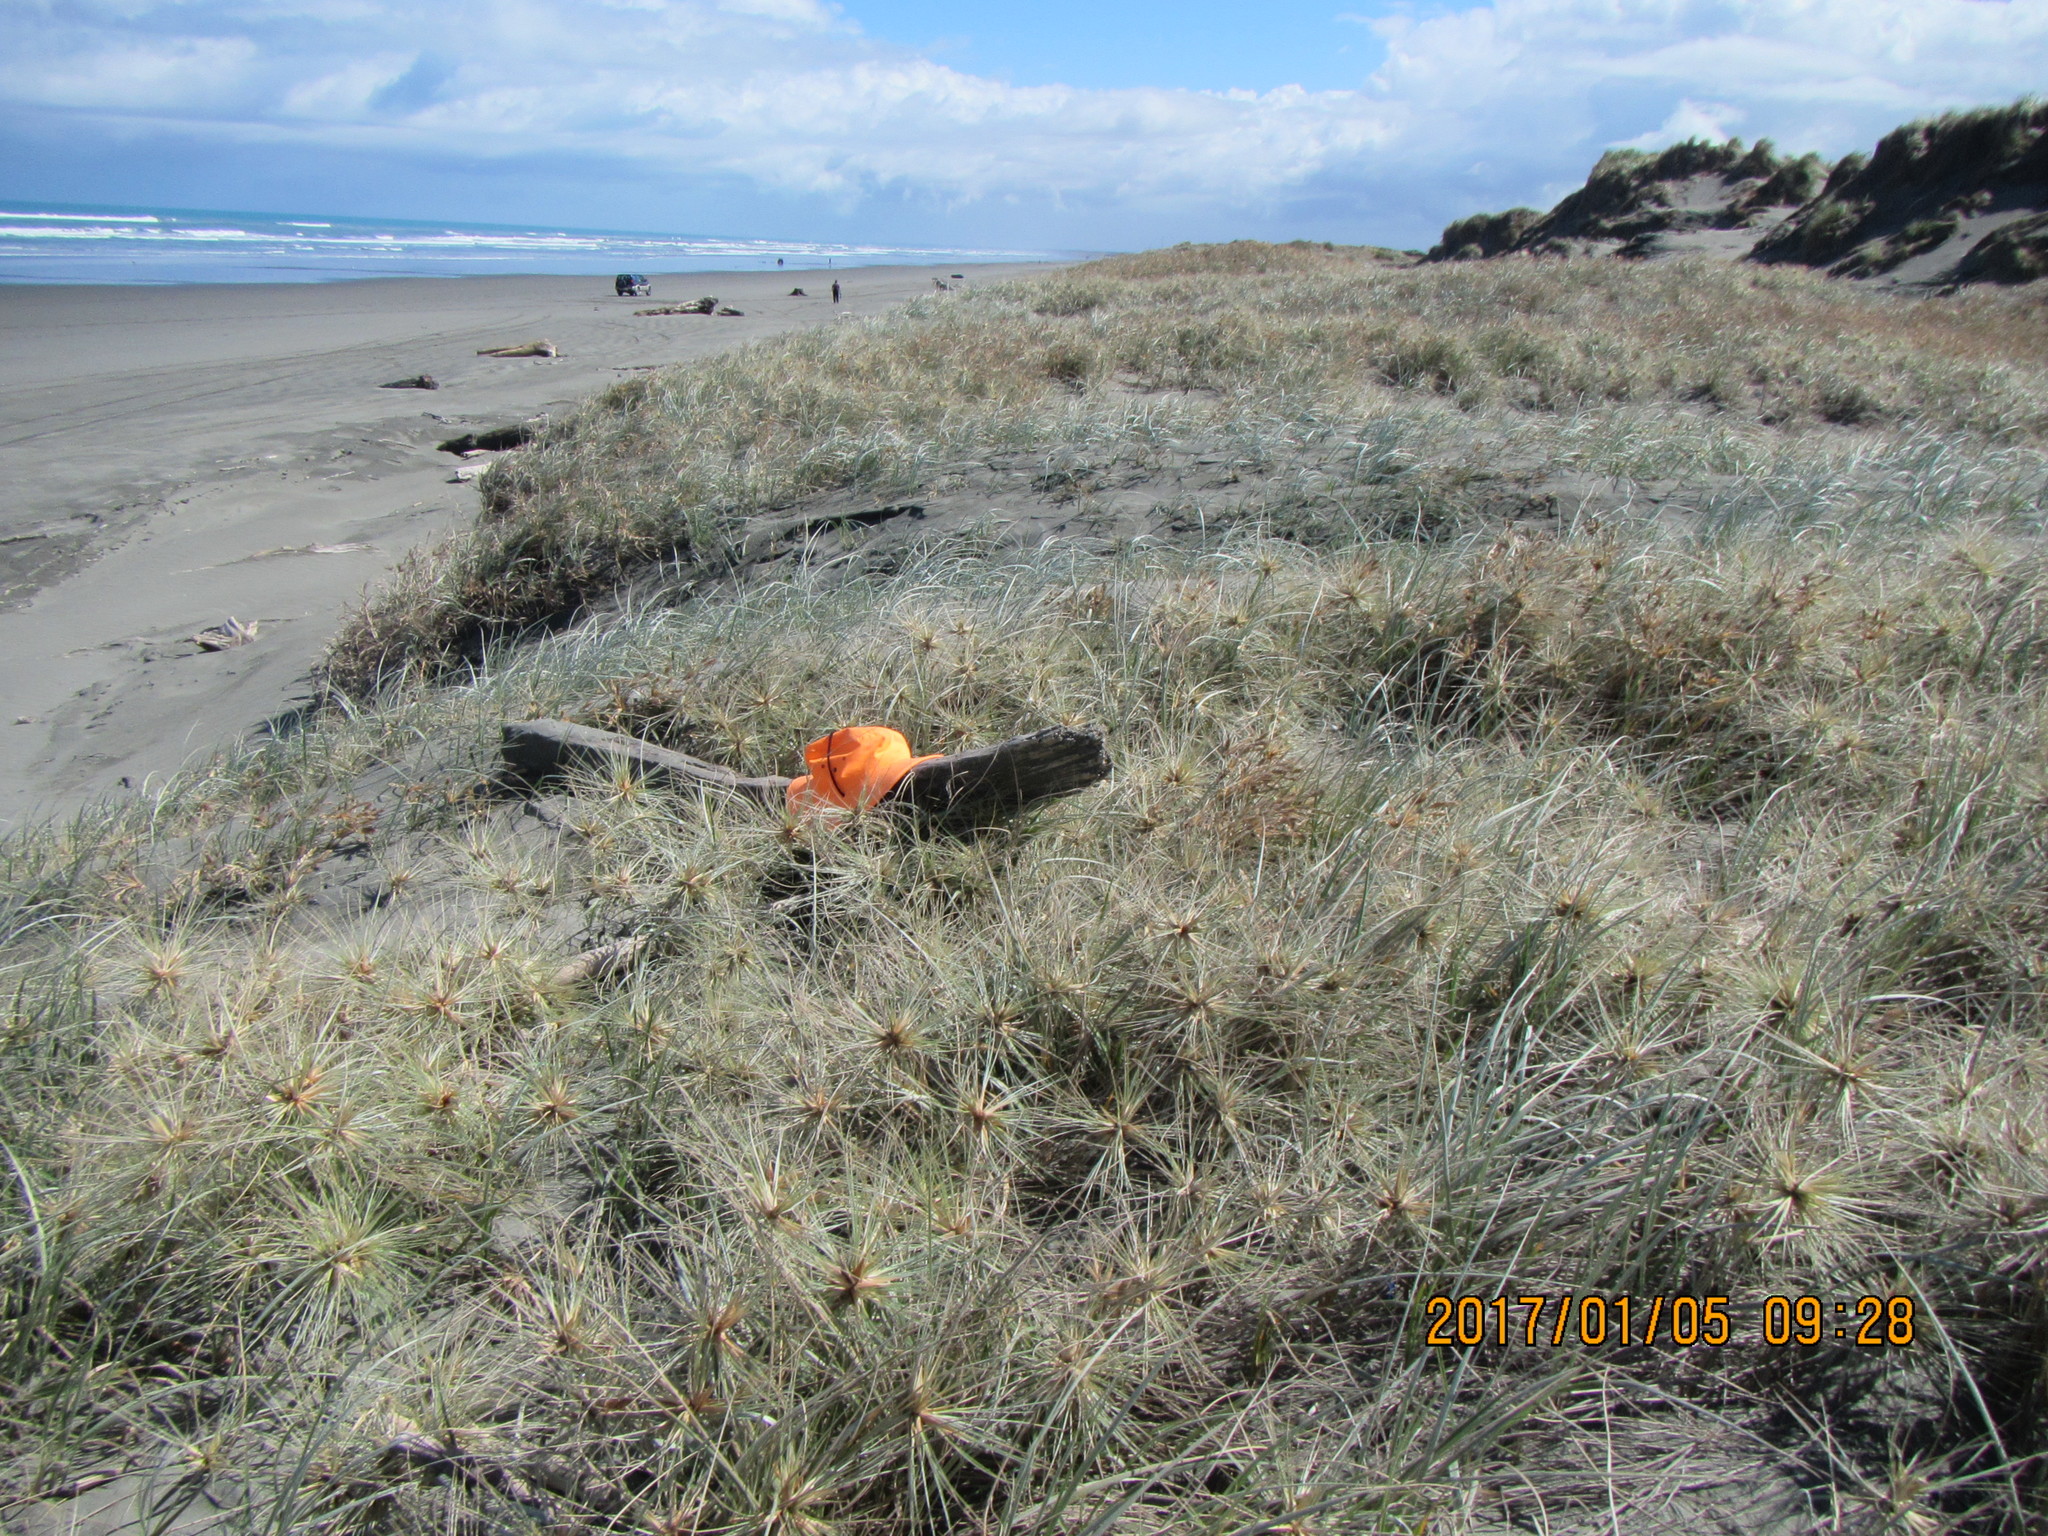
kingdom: Animalia
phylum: Arthropoda
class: Insecta
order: Coleoptera
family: Curculionidae
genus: Mesites
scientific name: Mesites pallidipennis
